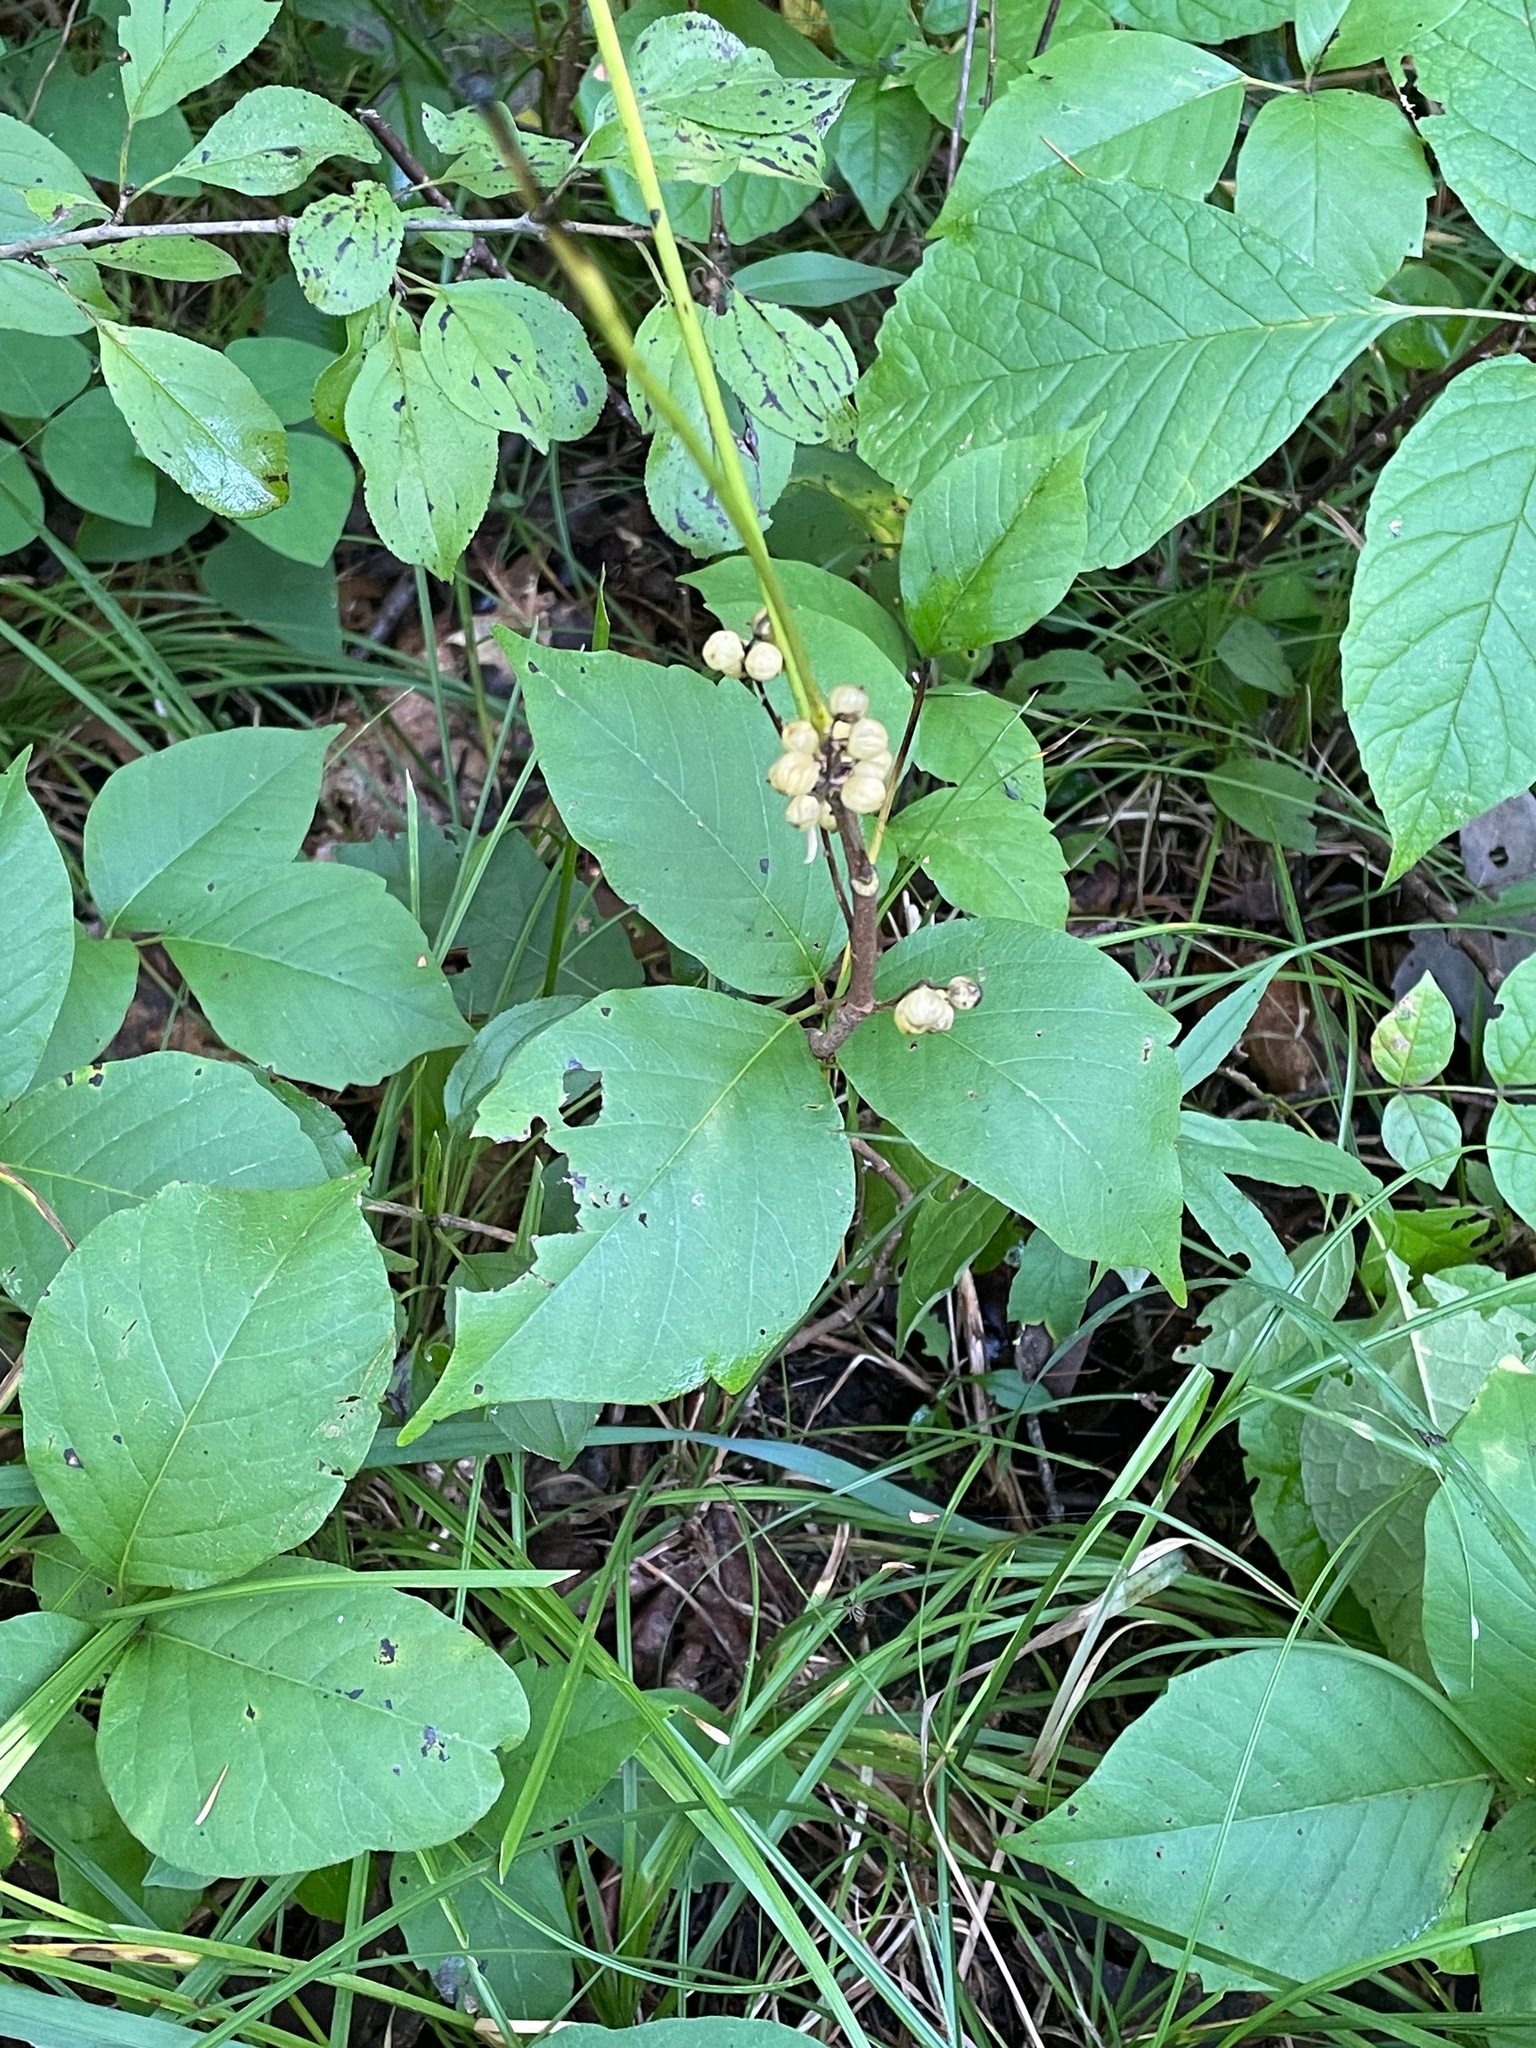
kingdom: Plantae
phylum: Tracheophyta
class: Magnoliopsida
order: Sapindales
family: Anacardiaceae
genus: Toxicodendron
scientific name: Toxicodendron rydbergii
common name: Rydberg's poison-ivy
